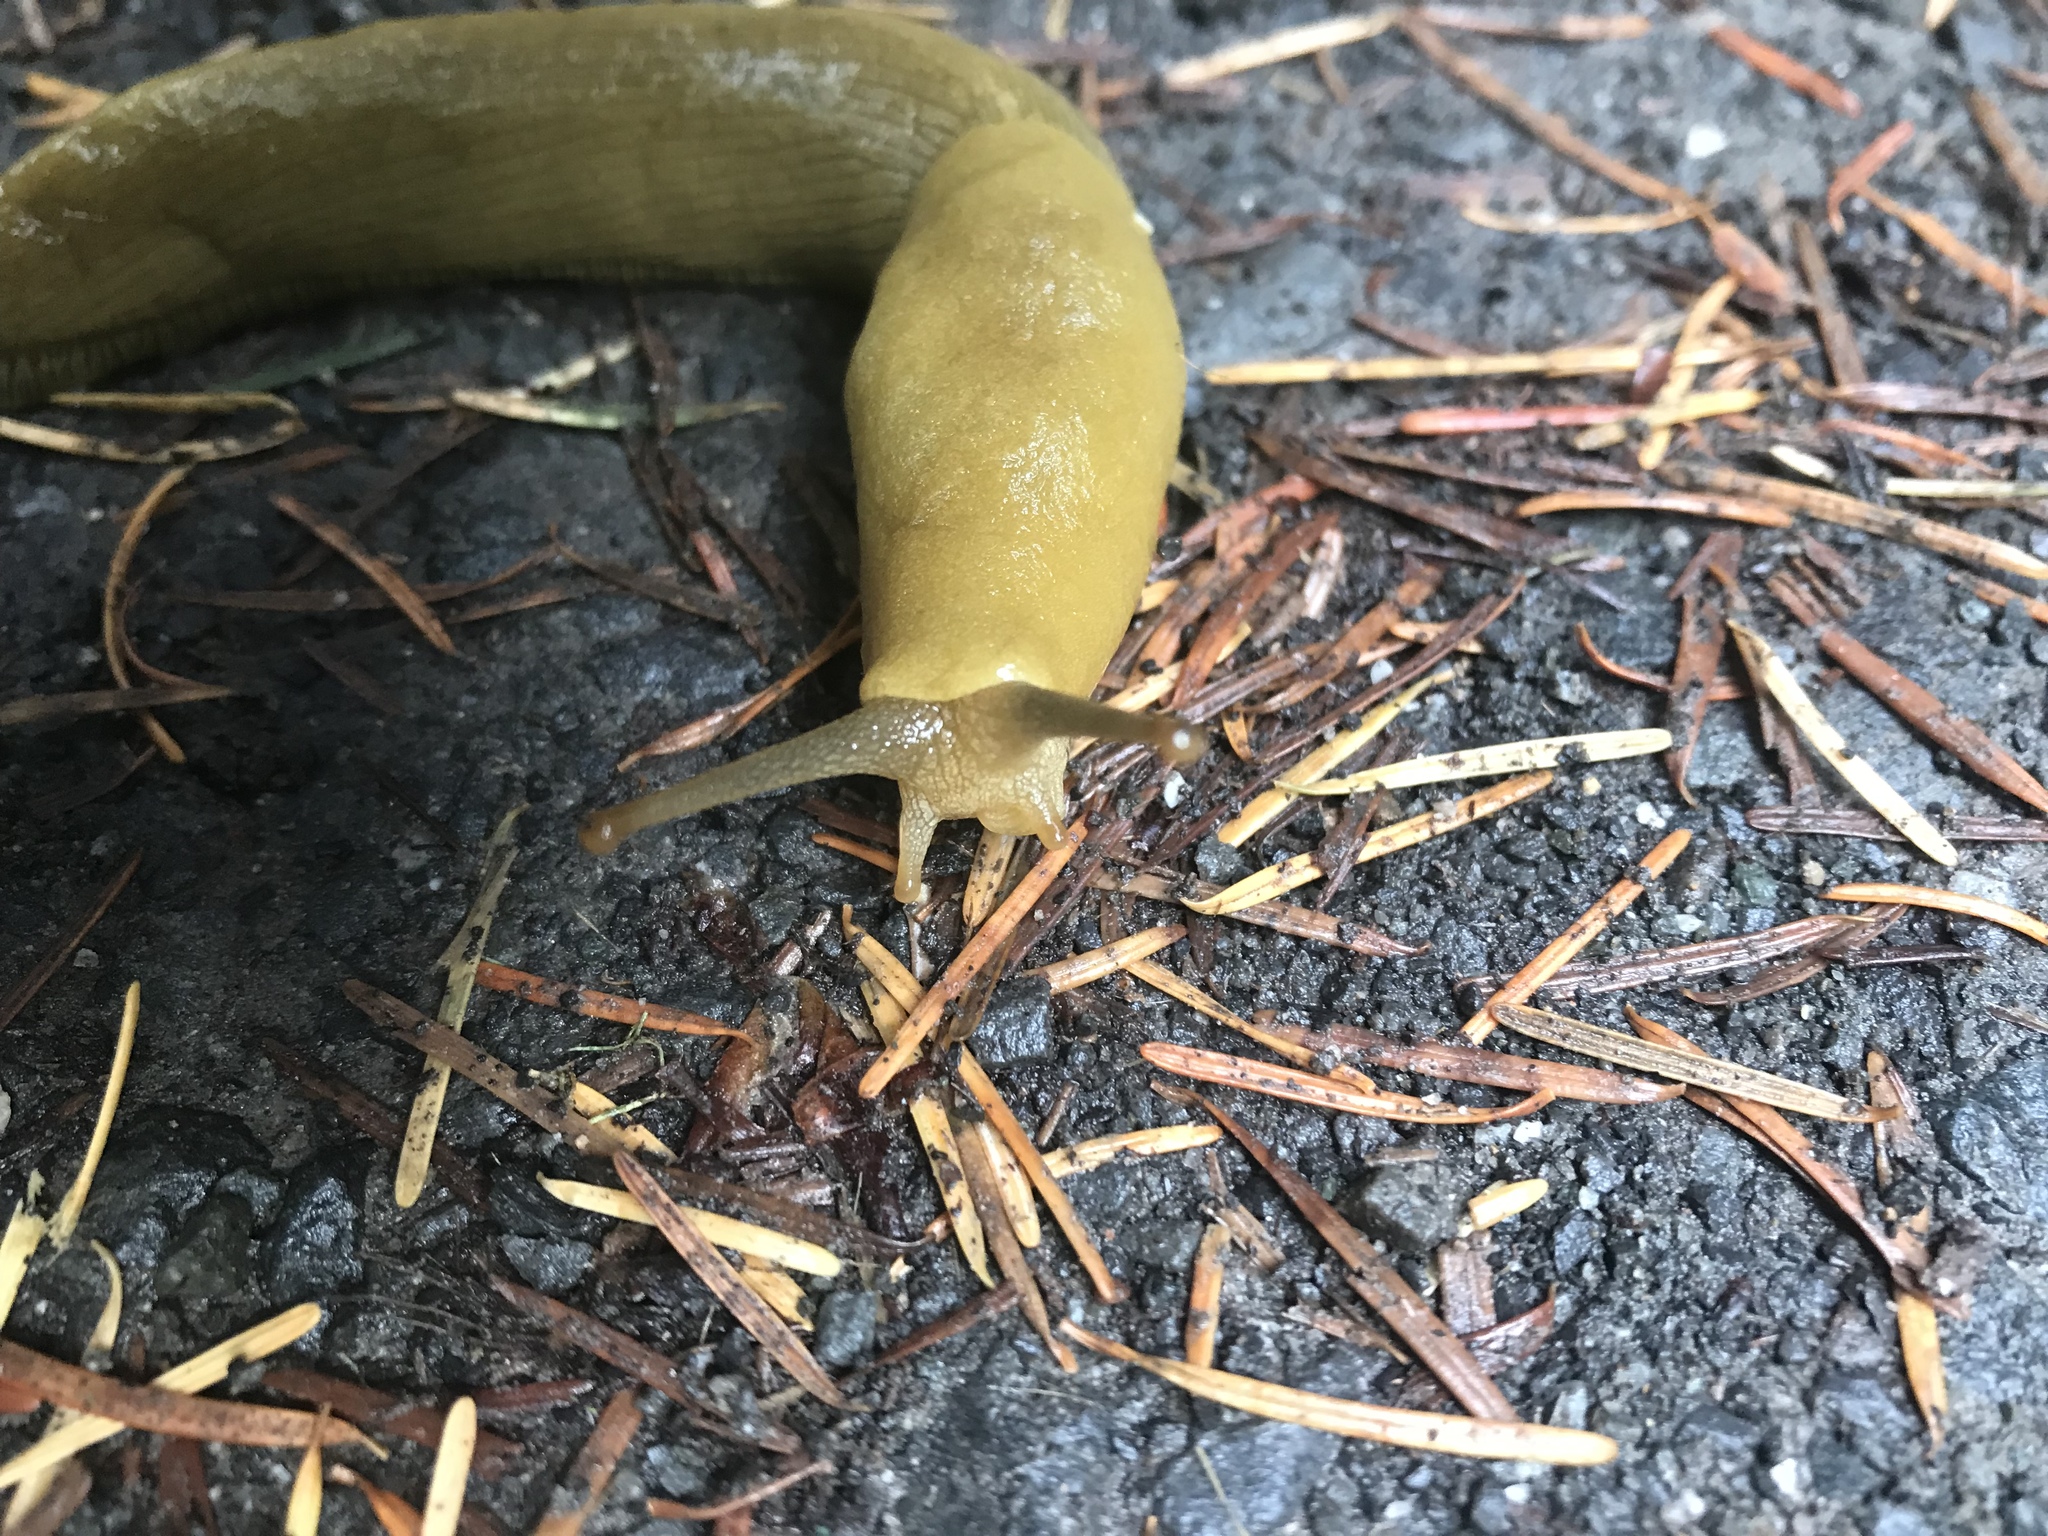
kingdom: Animalia
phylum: Mollusca
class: Gastropoda
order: Stylommatophora
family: Ariolimacidae
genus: Ariolimax
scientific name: Ariolimax buttoni
